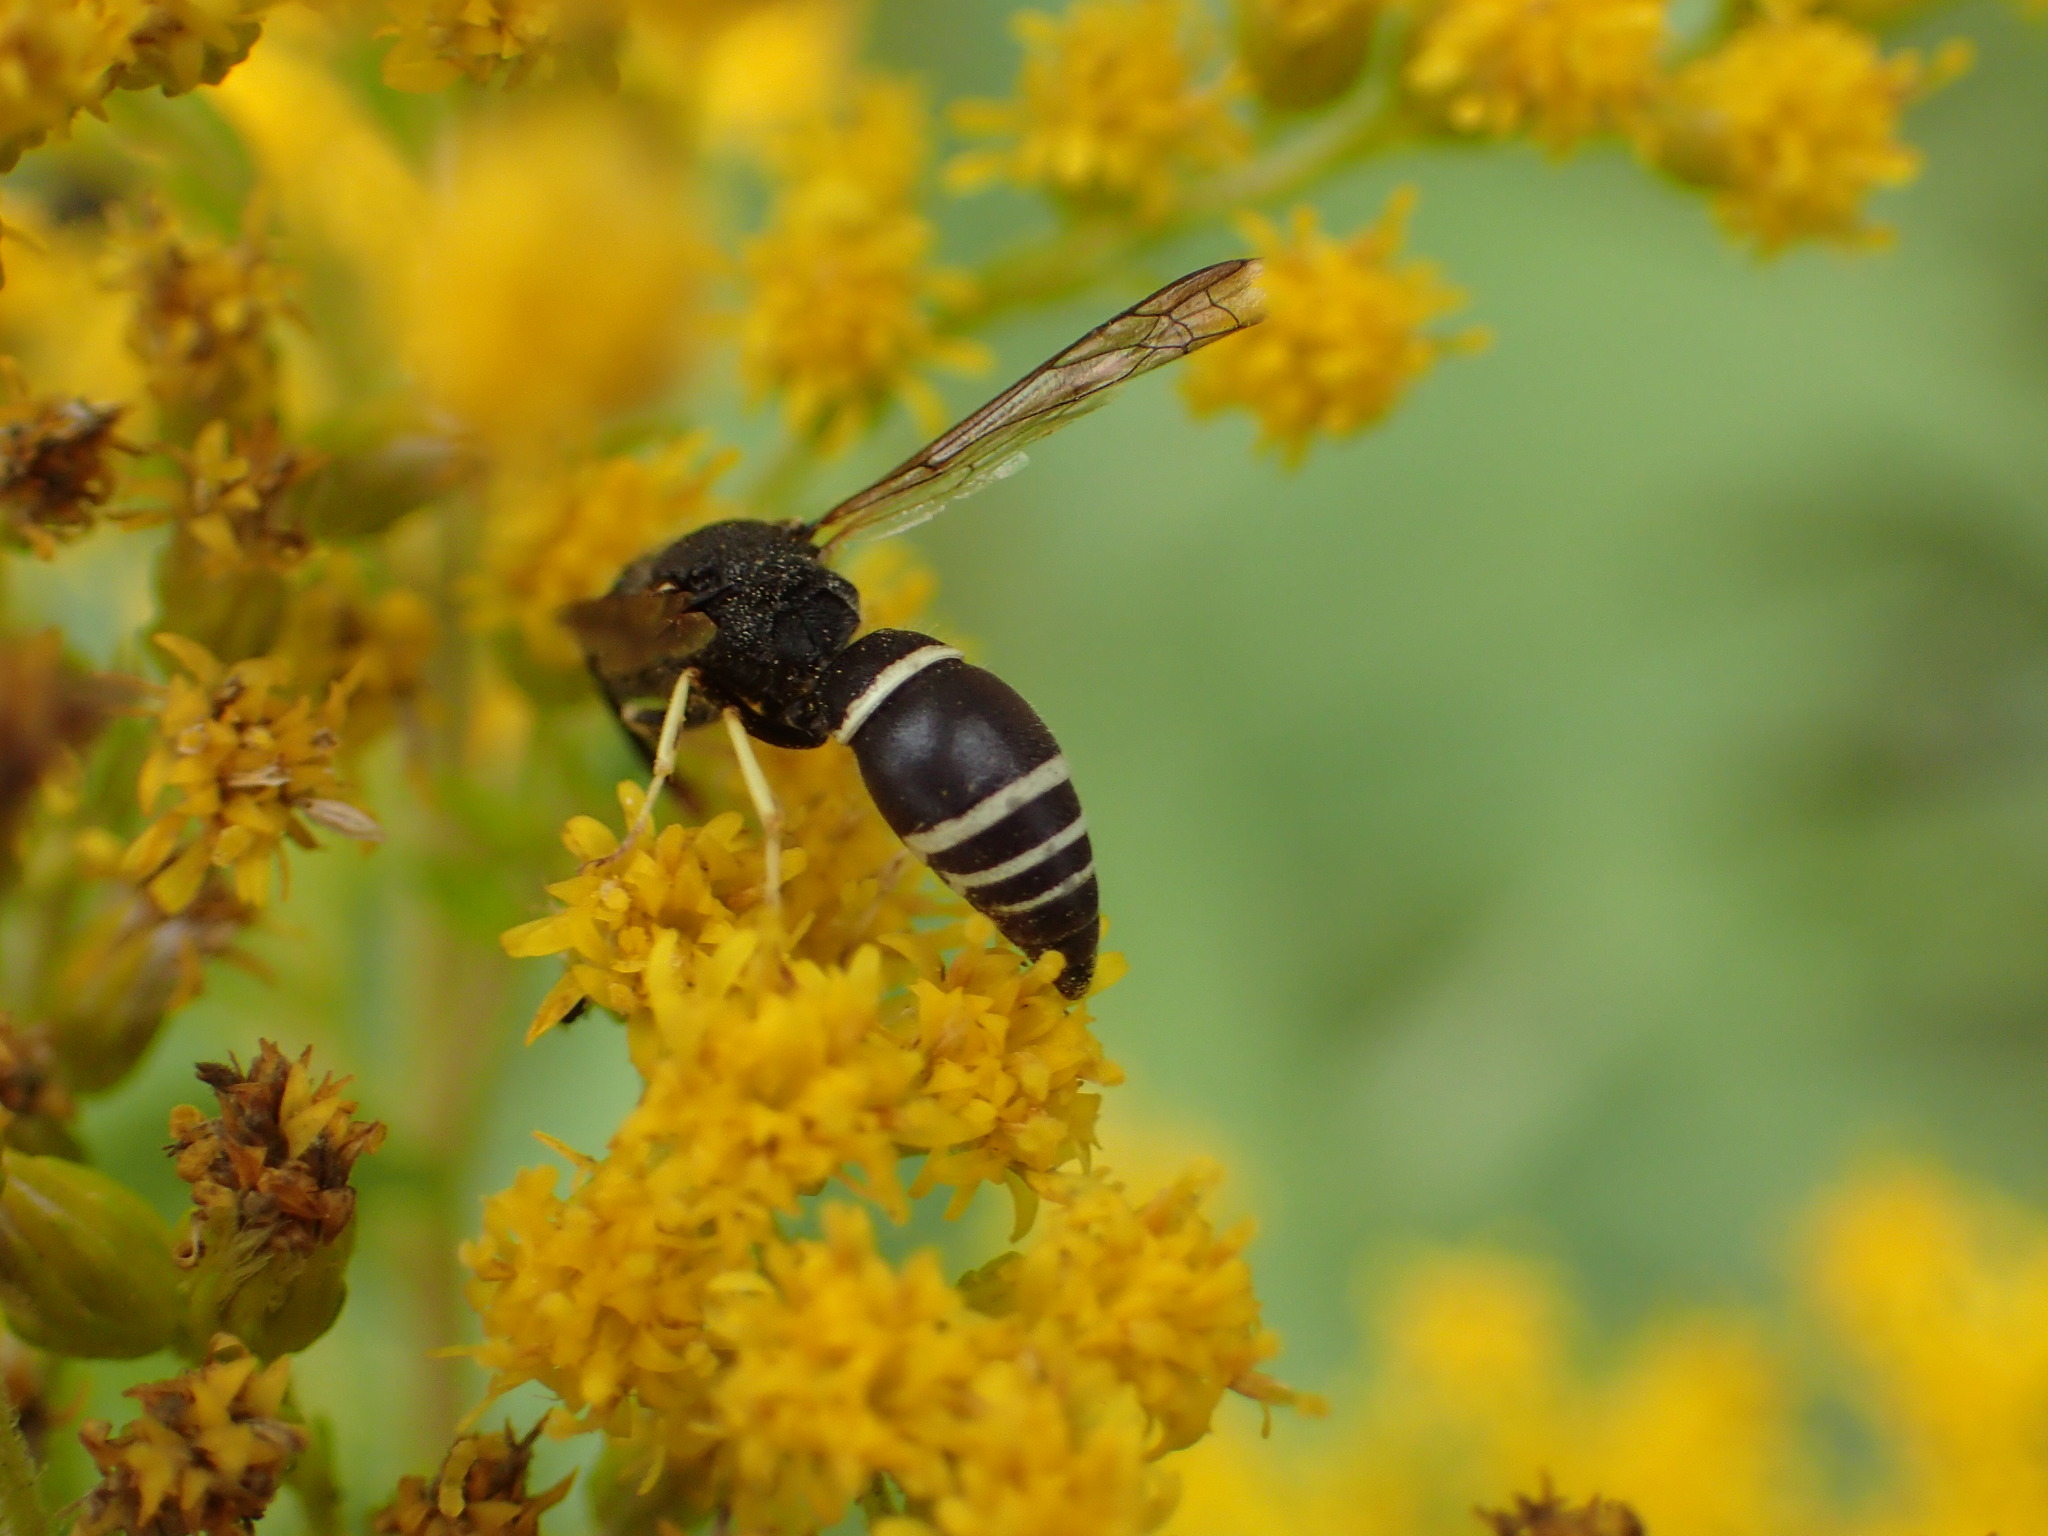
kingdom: Animalia
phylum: Arthropoda
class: Insecta
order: Hymenoptera
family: Vespidae
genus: Ancistrocerus
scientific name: Ancistrocerus
